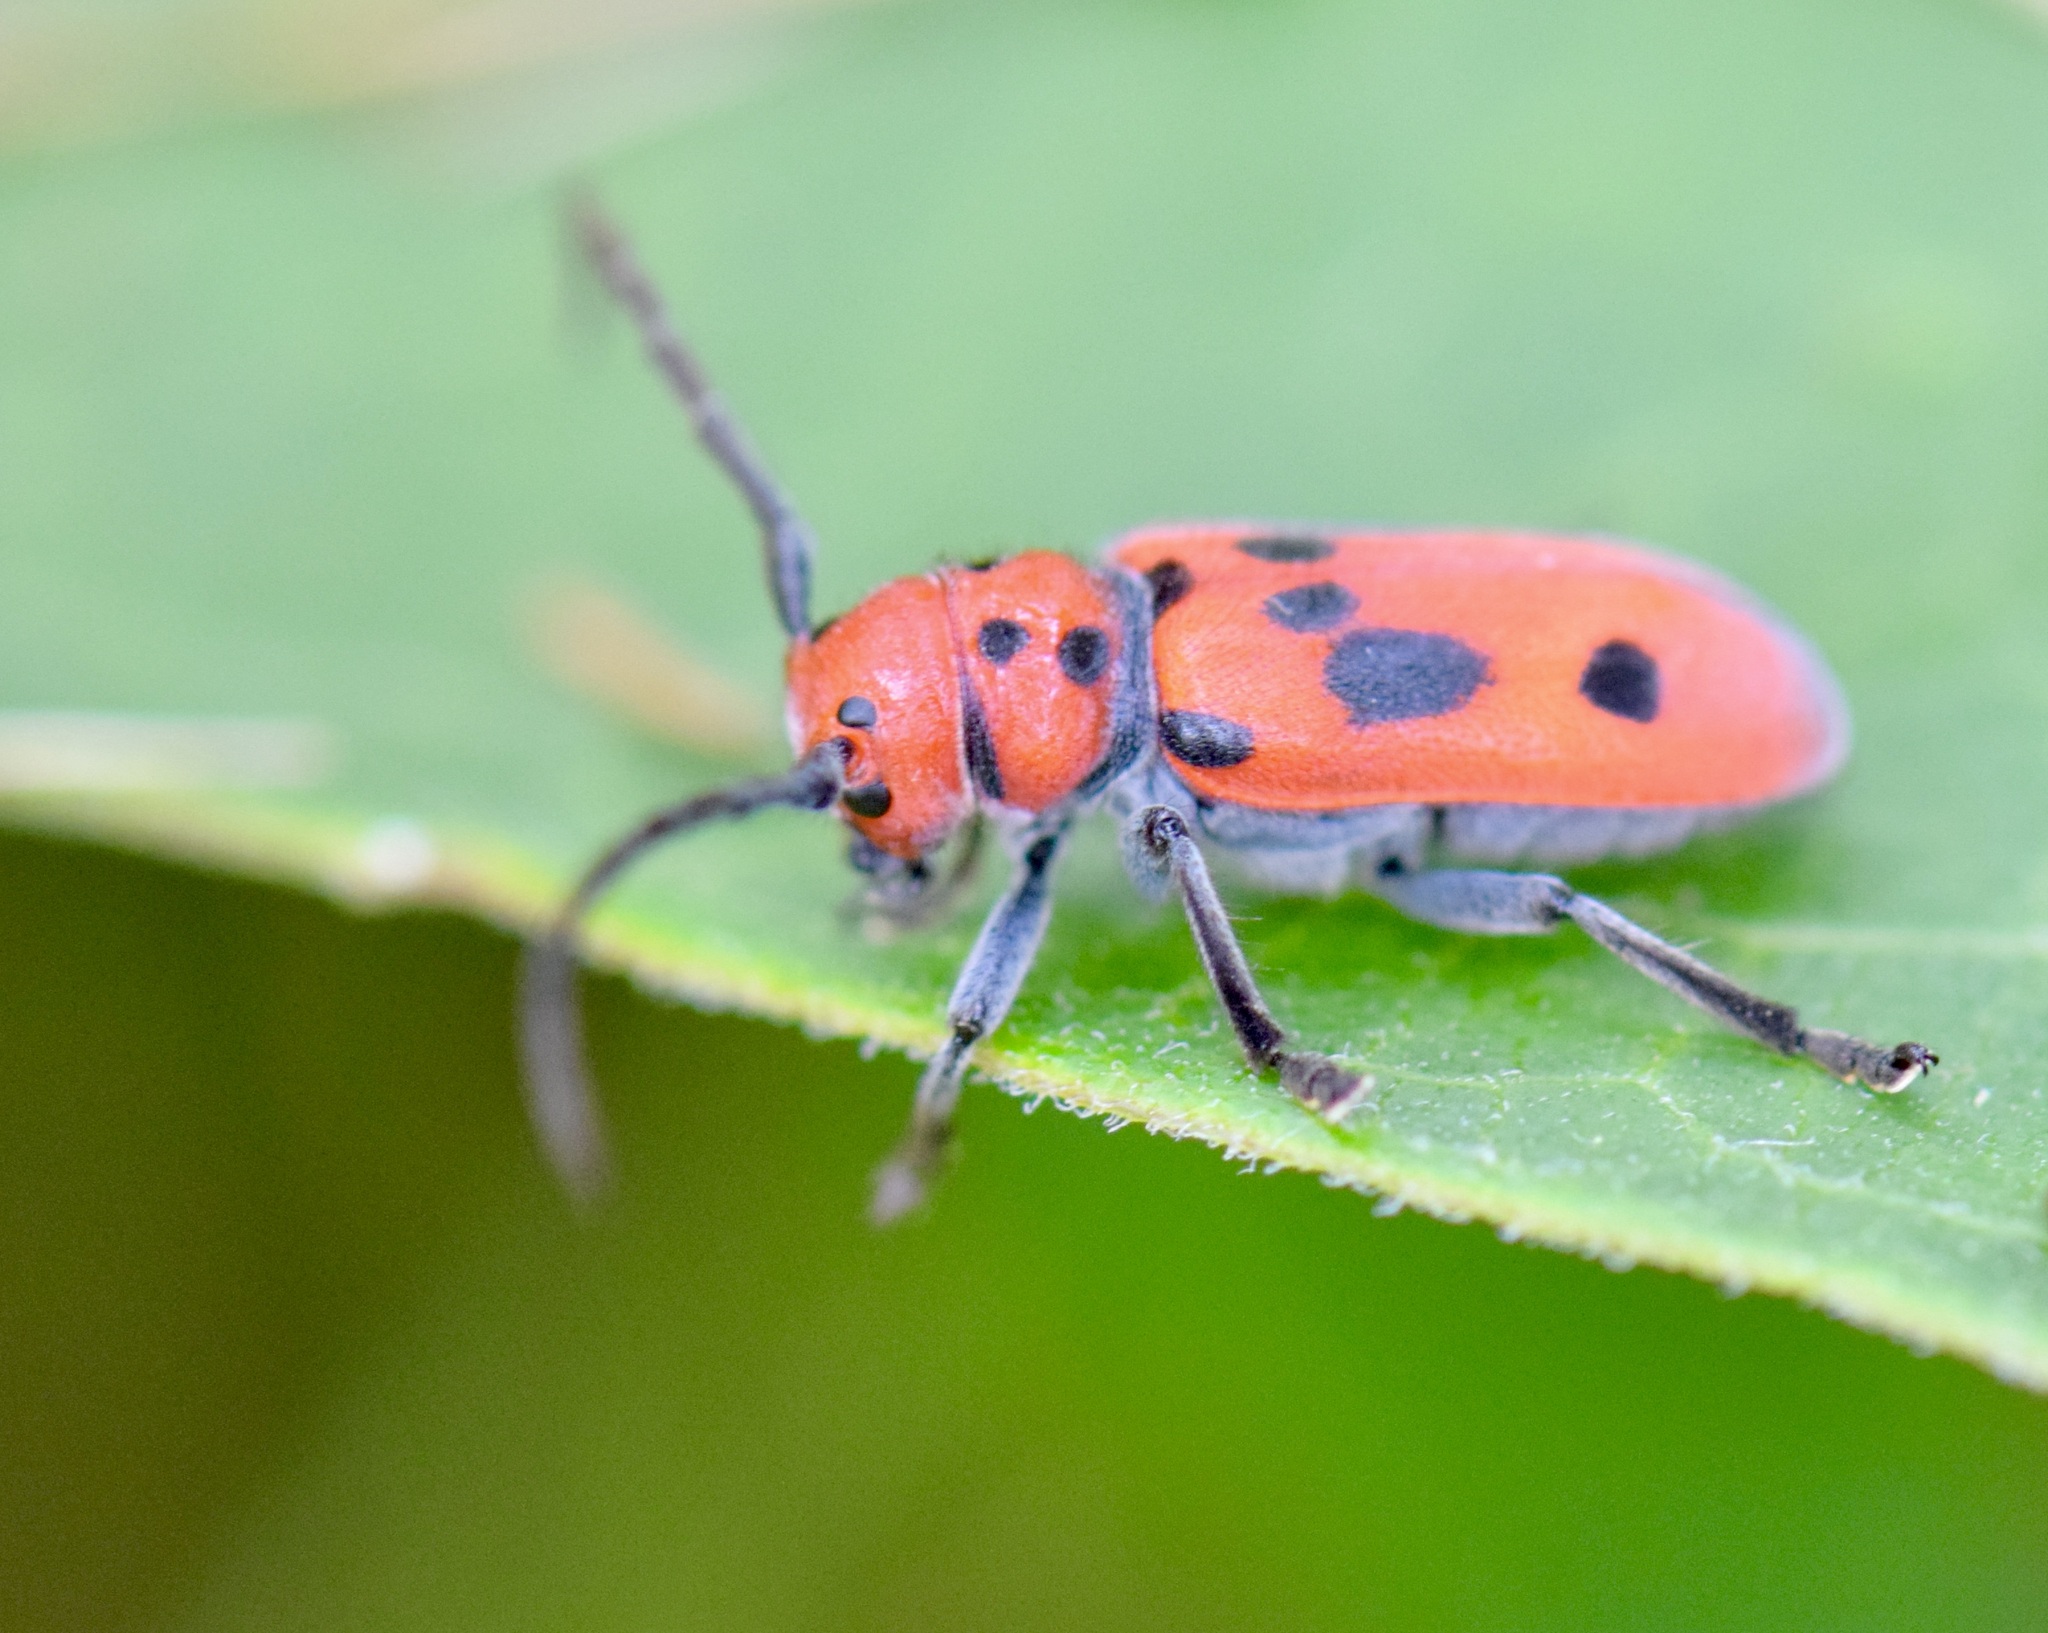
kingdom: Animalia
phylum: Arthropoda
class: Insecta
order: Coleoptera
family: Cerambycidae
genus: Tetraopes
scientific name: Tetraopes tetrophthalmus
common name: Red milkweed beetle
